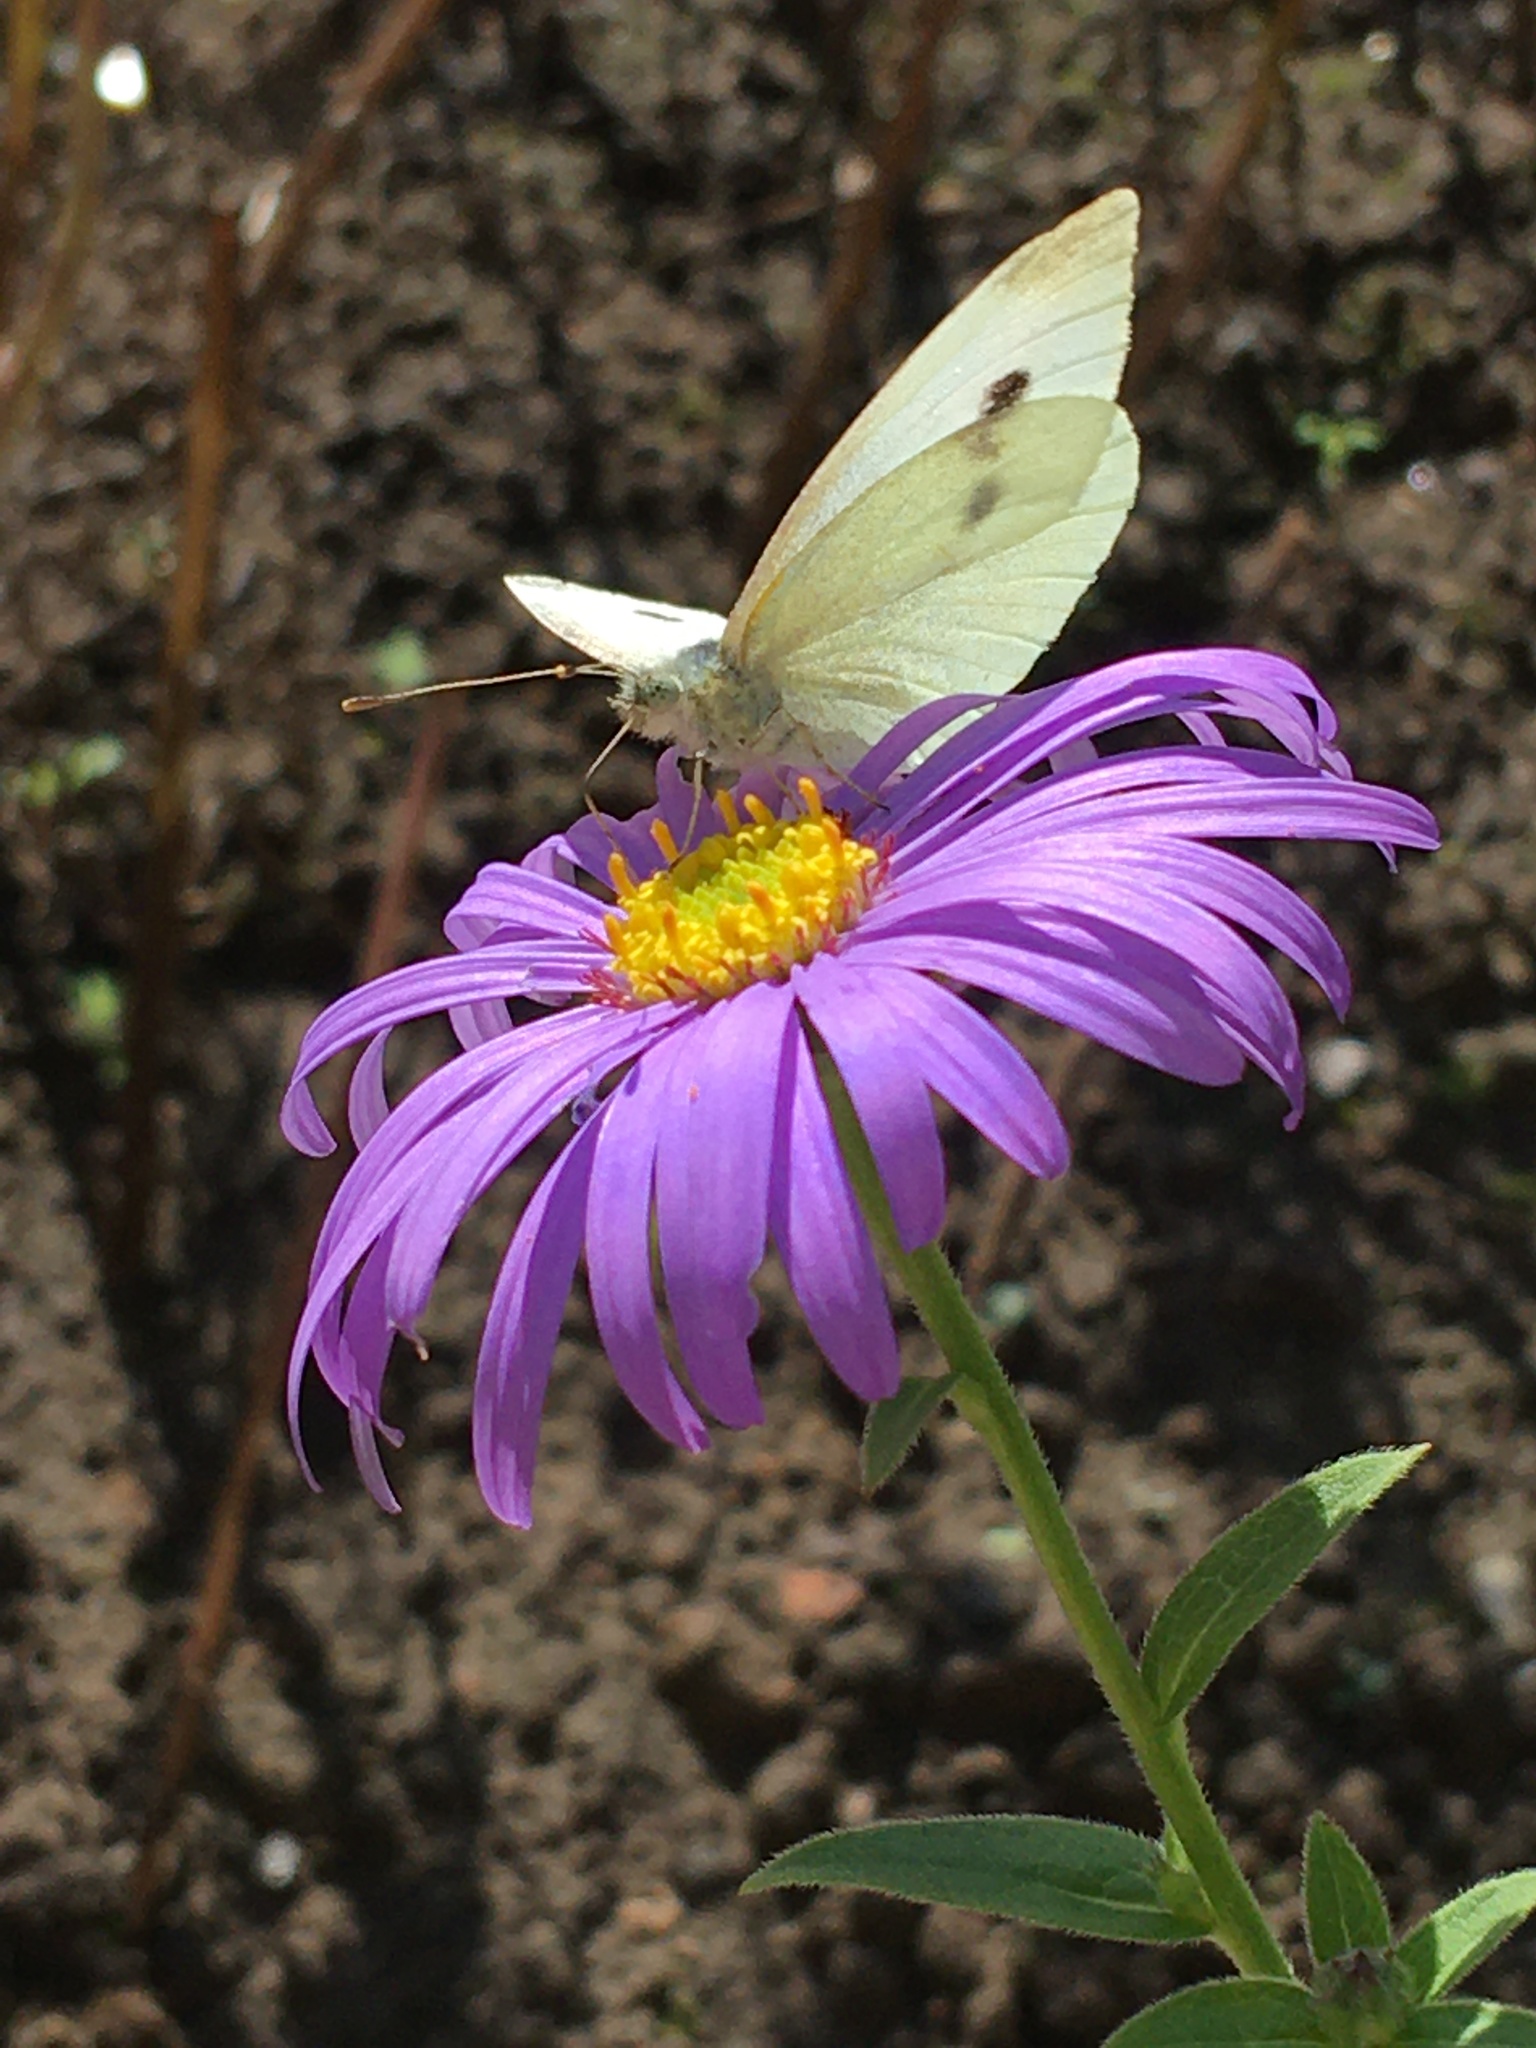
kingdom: Animalia
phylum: Arthropoda
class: Insecta
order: Lepidoptera
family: Pieridae
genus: Pieris
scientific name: Pieris rapae
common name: Small white
